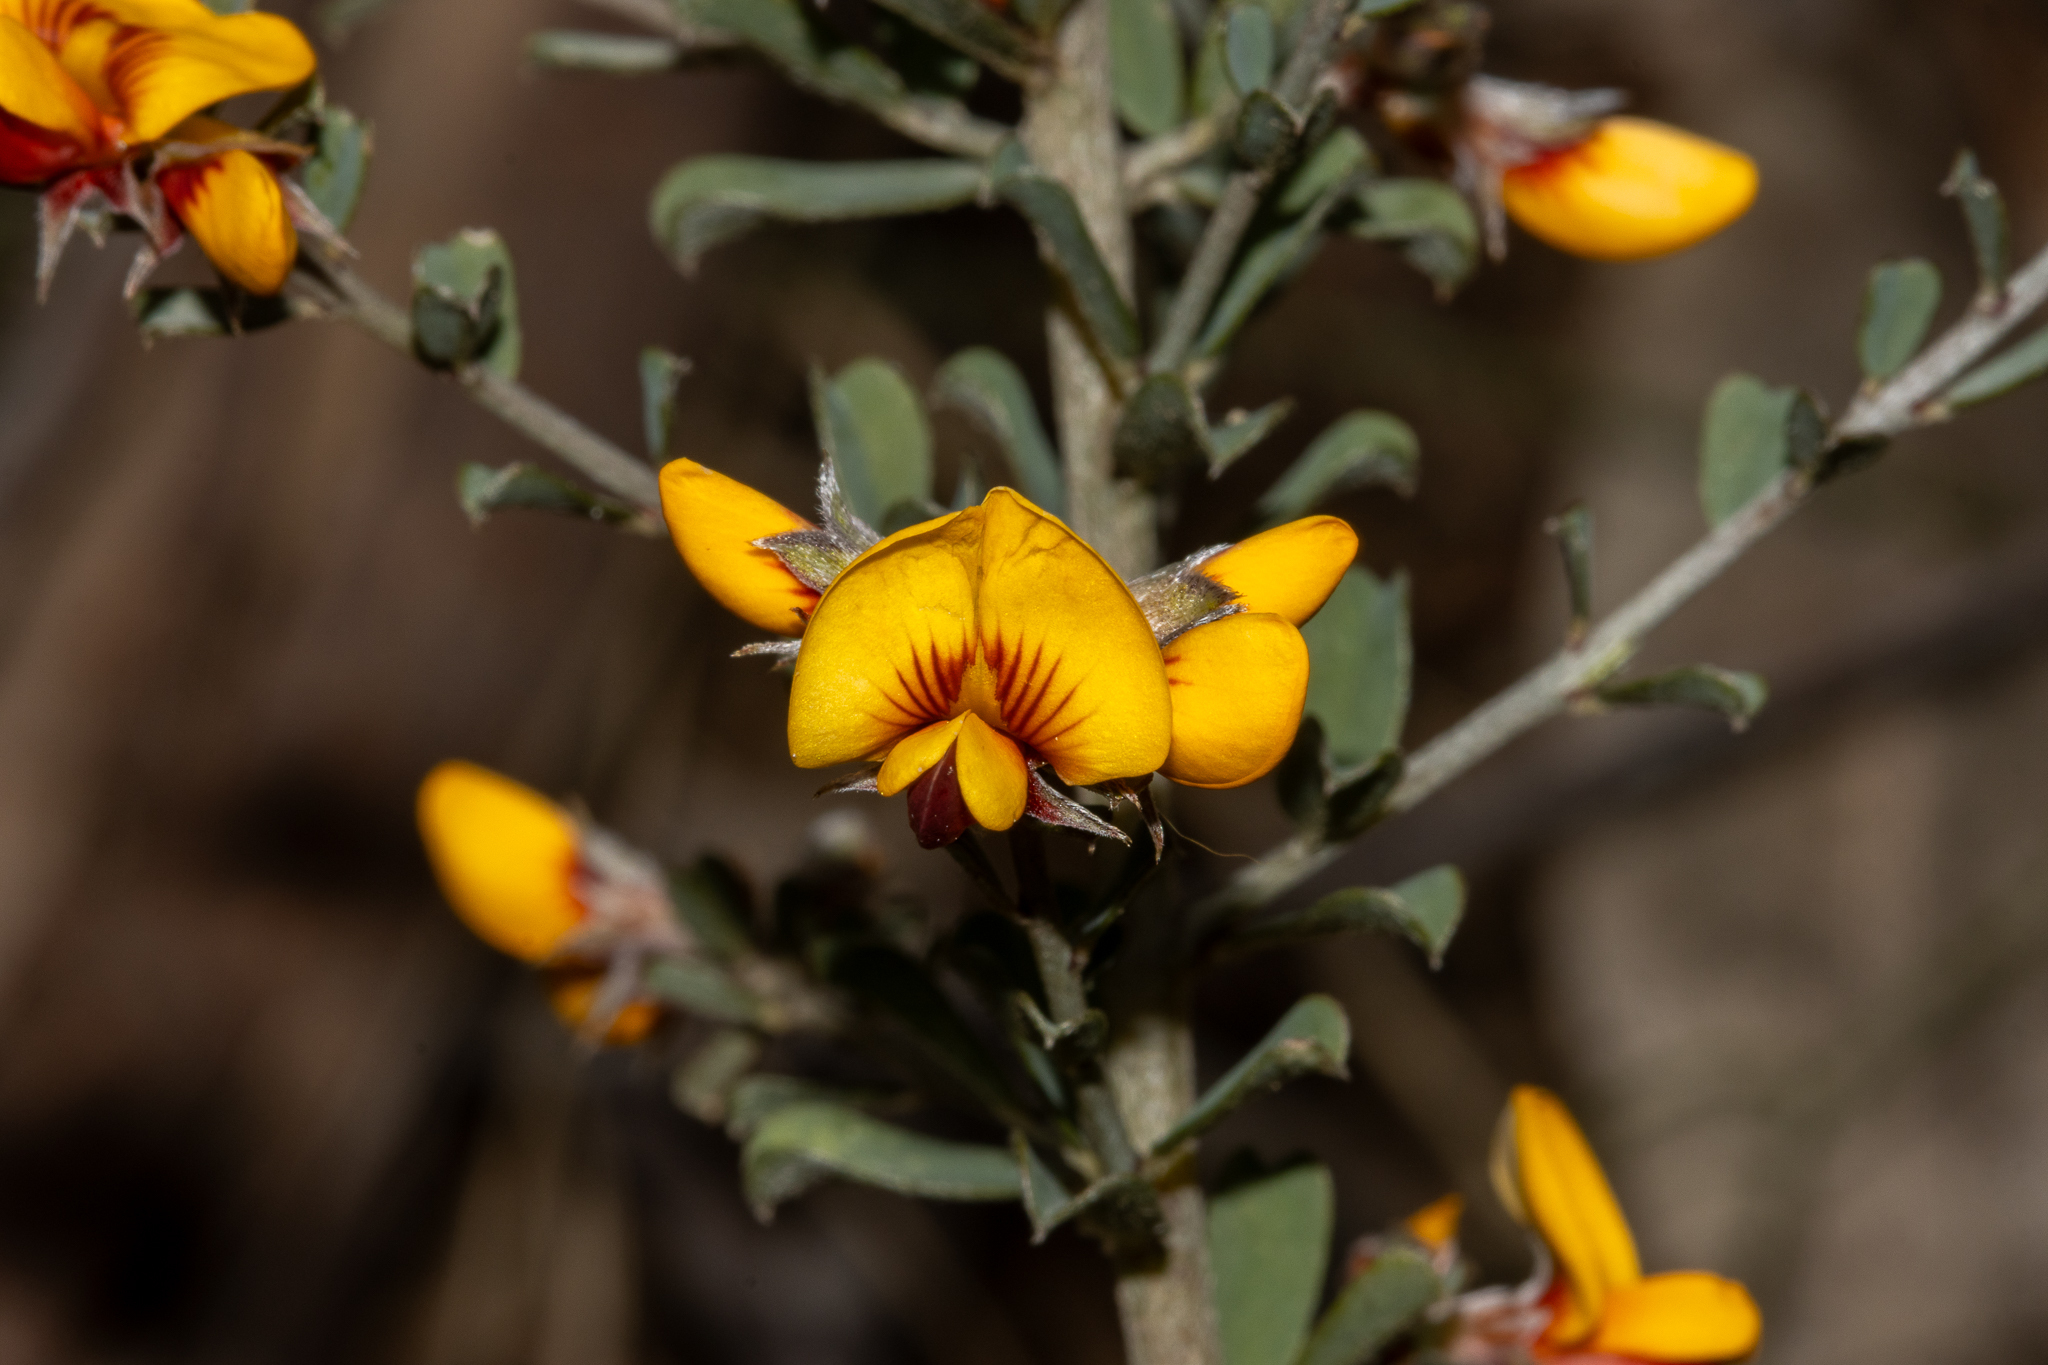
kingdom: Plantae
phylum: Tracheophyta
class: Magnoliopsida
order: Fabales
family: Fabaceae
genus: Pultenaea
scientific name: Pultenaea largiflorens
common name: Twiggy bush-pea
